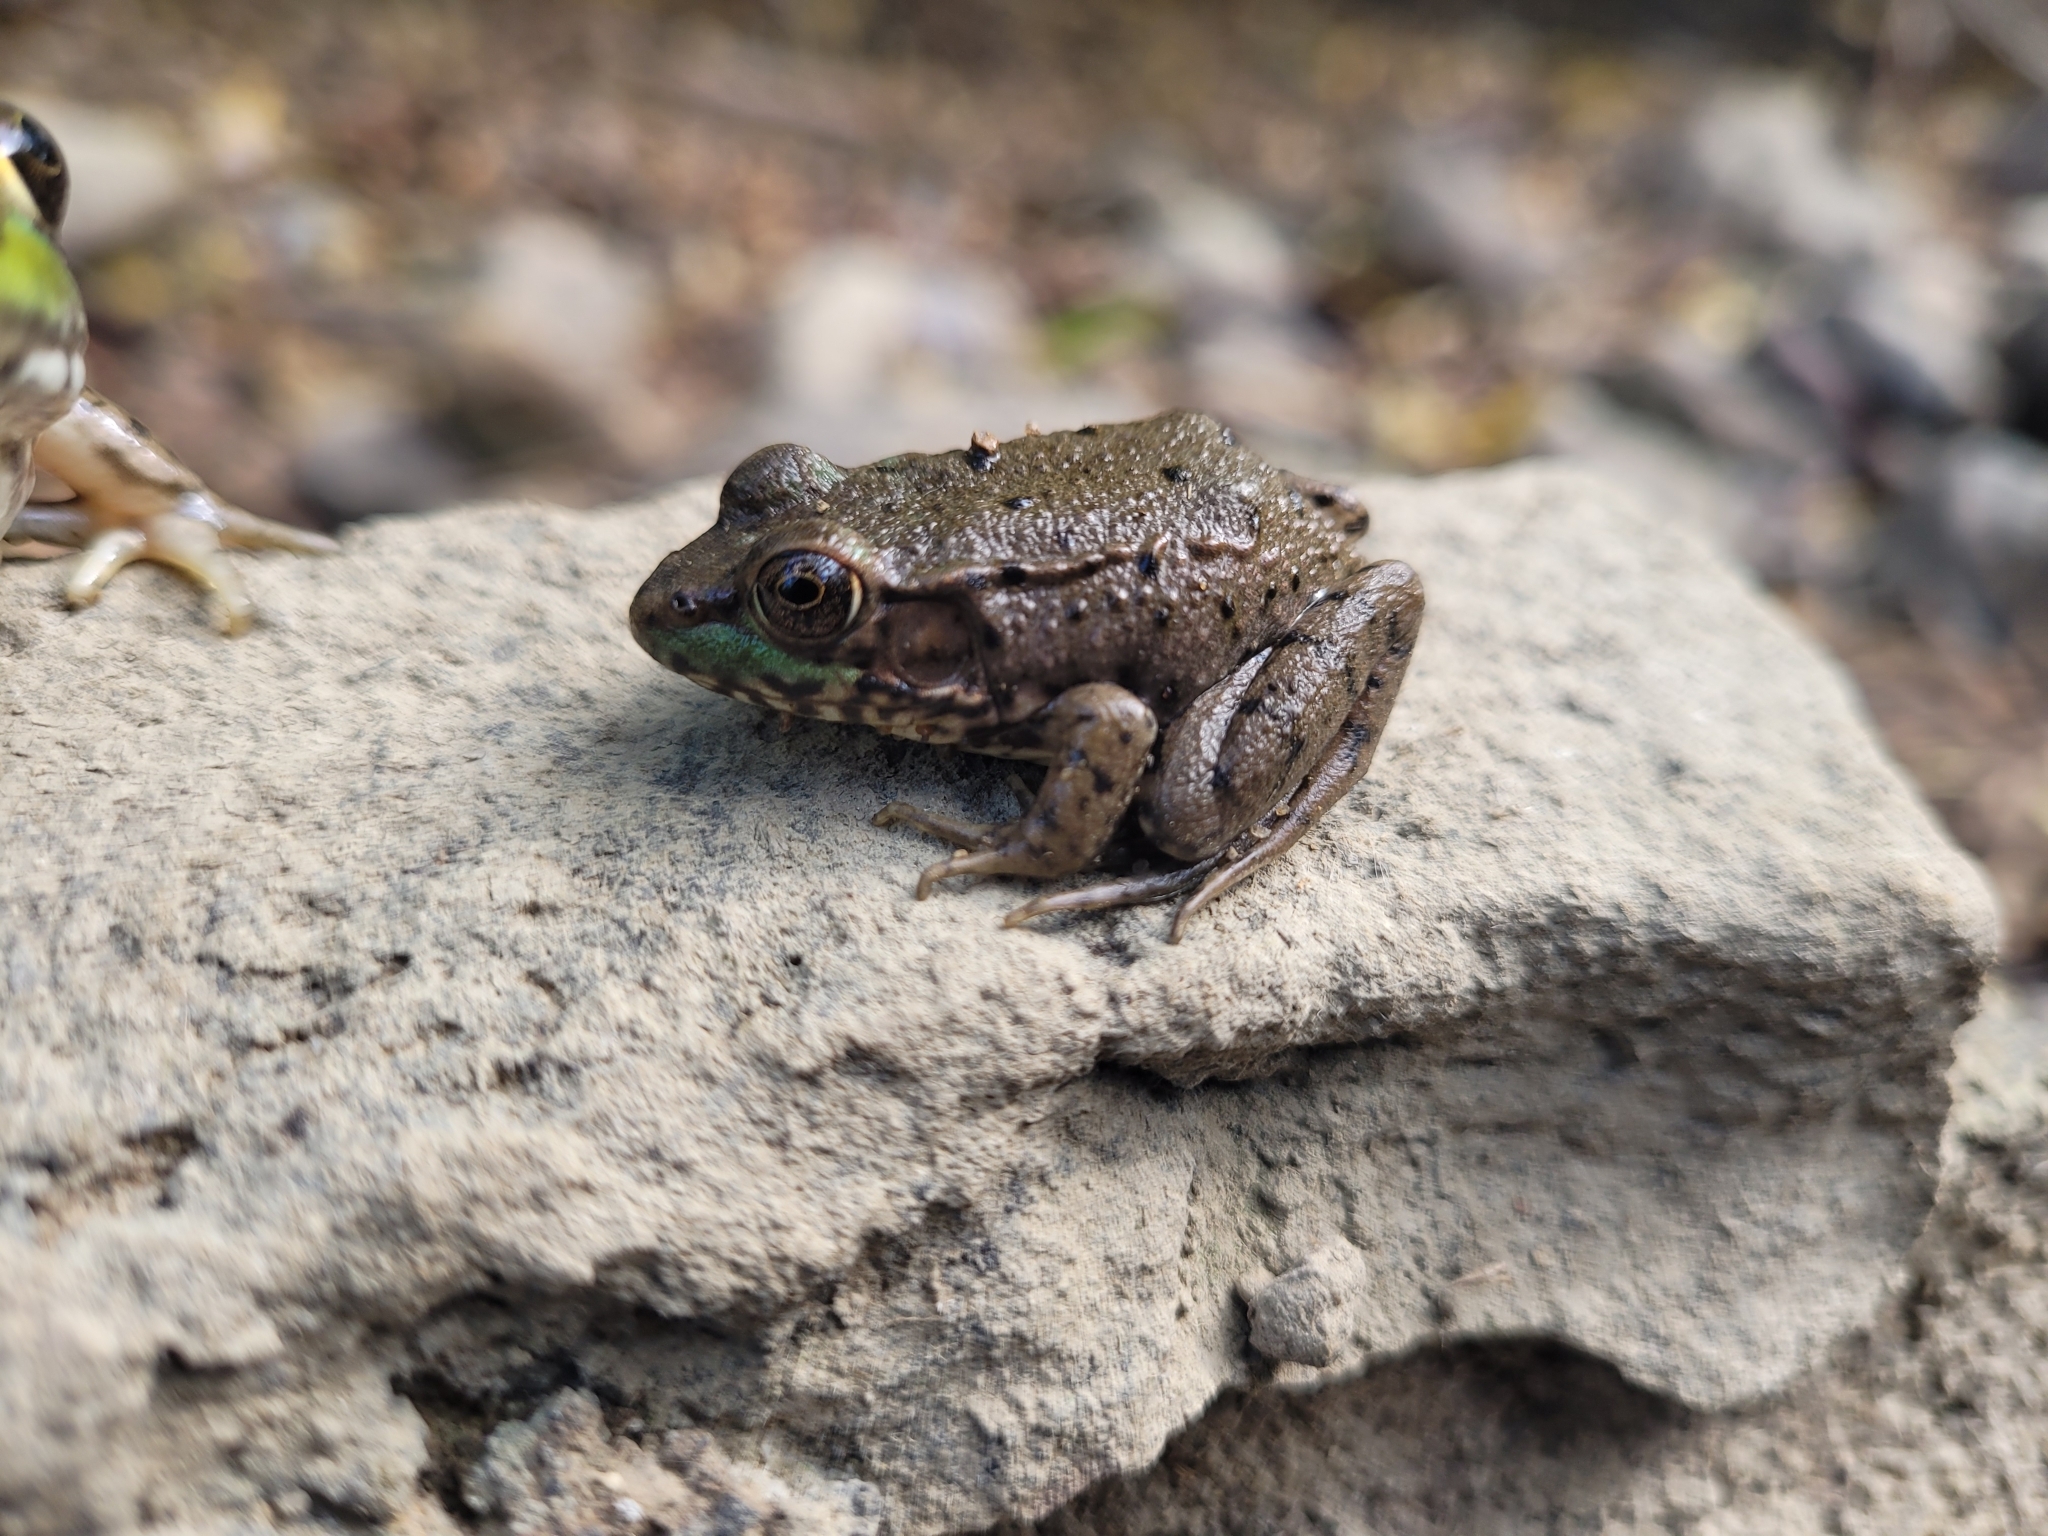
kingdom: Animalia
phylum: Chordata
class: Amphibia
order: Anura
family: Ranidae
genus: Lithobates
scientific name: Lithobates clamitans
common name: Green frog
